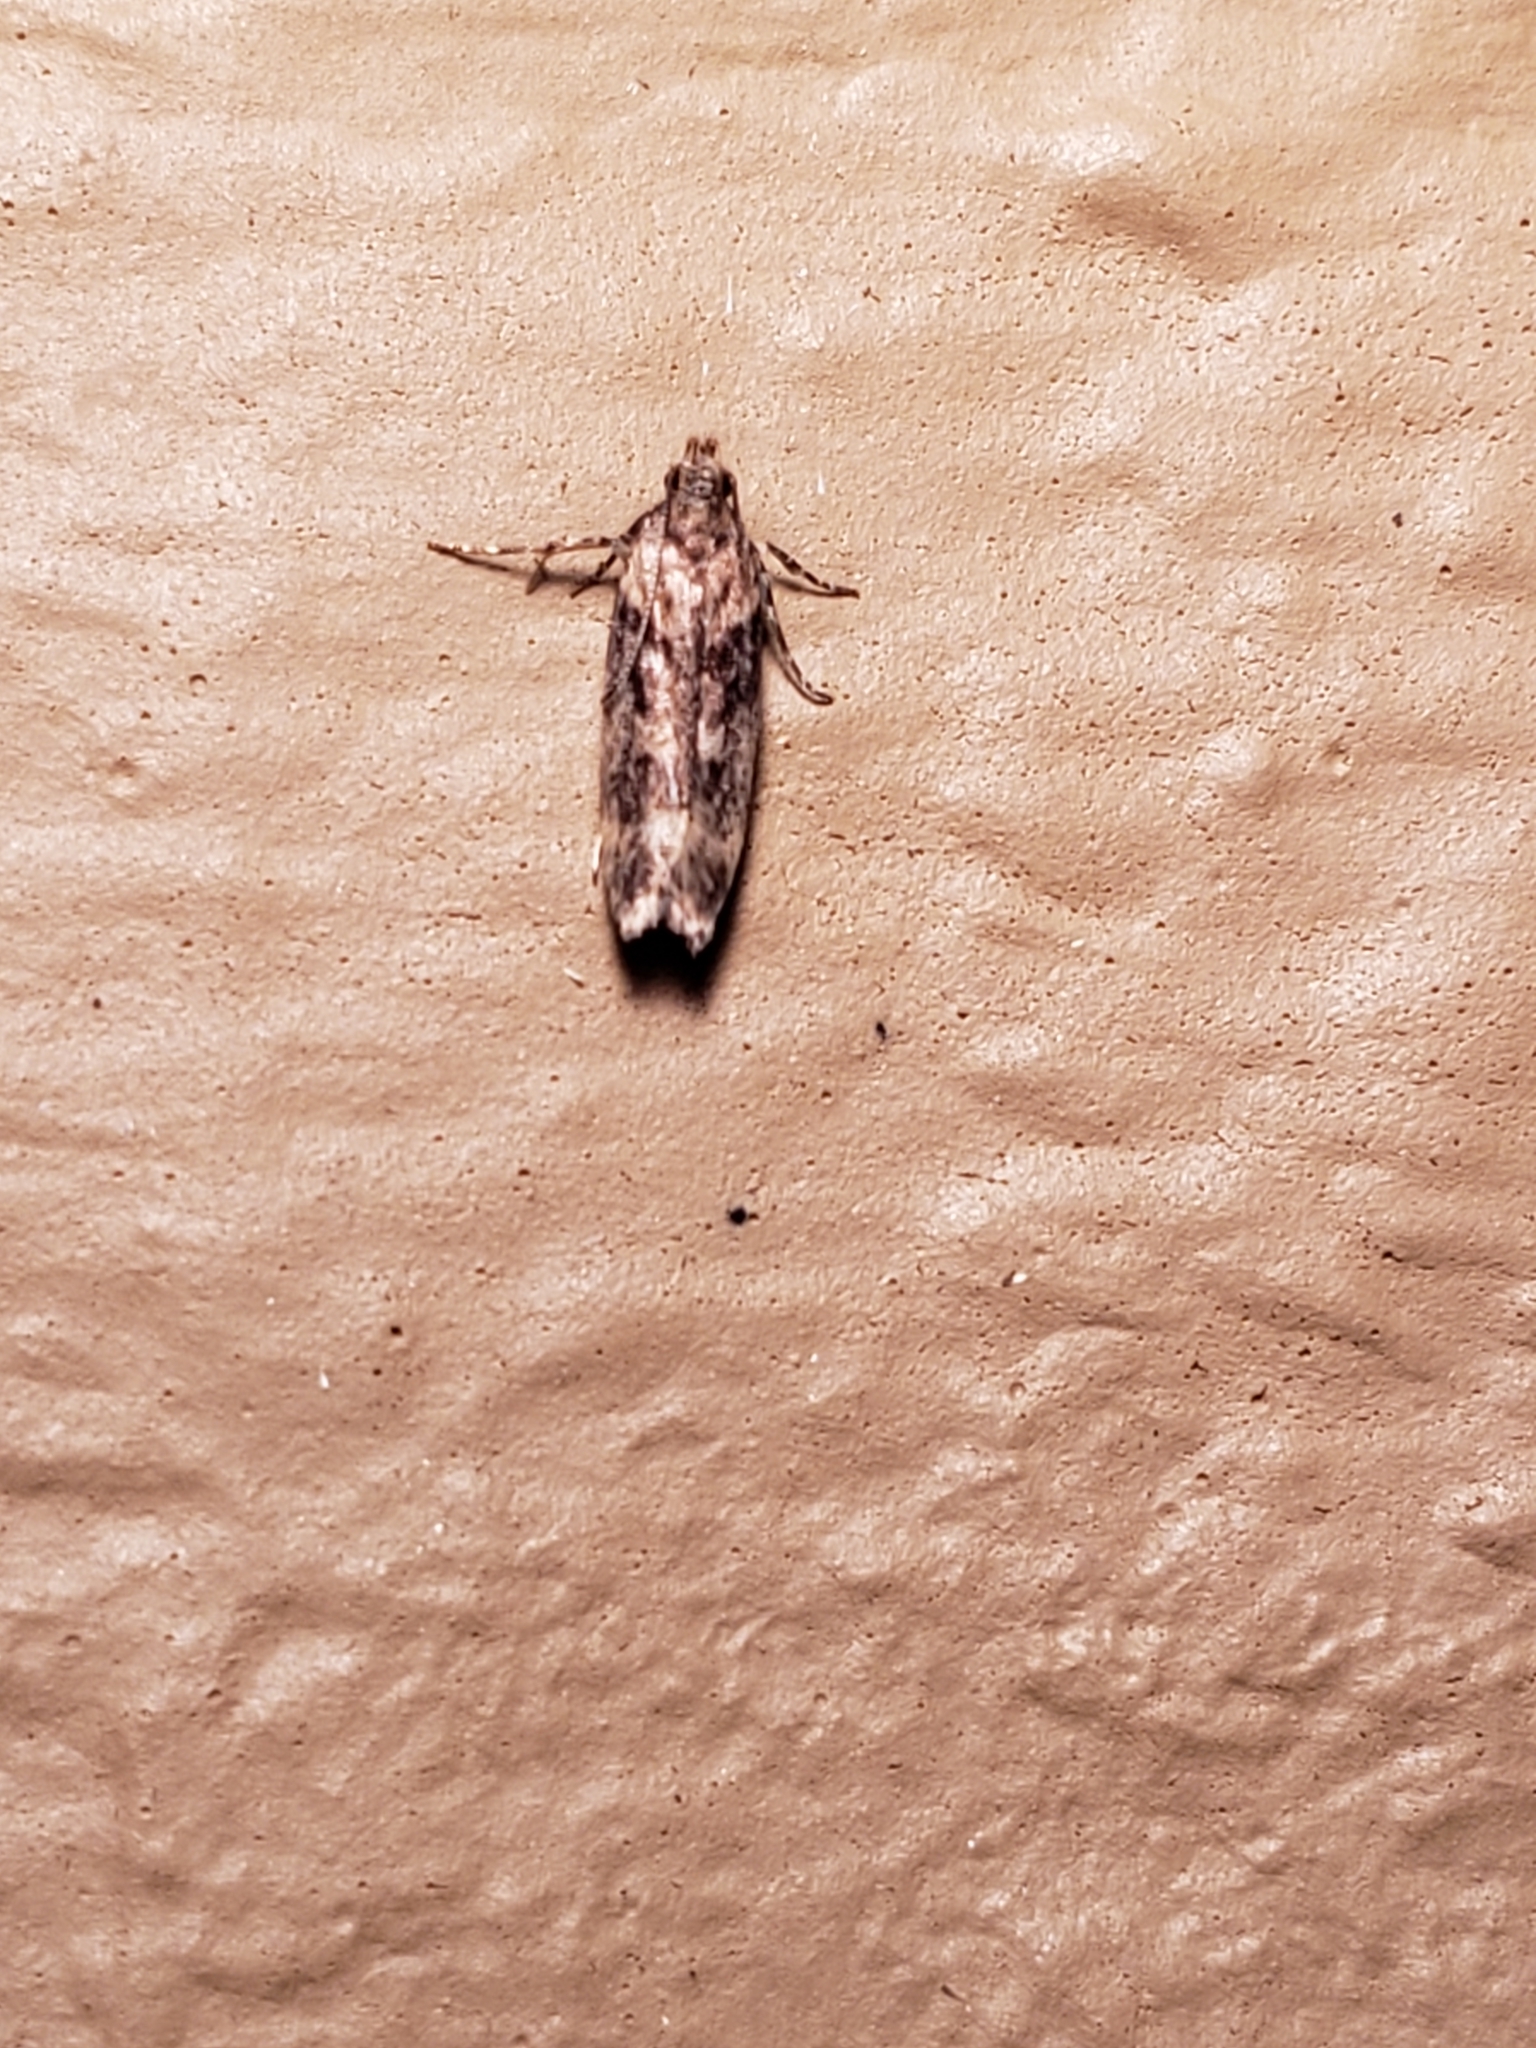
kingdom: Animalia
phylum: Arthropoda
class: Insecta
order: Lepidoptera
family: Gelechiidae
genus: Chionodes
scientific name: Chionodes mediofuscella
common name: Black-smudged chionodes moth
